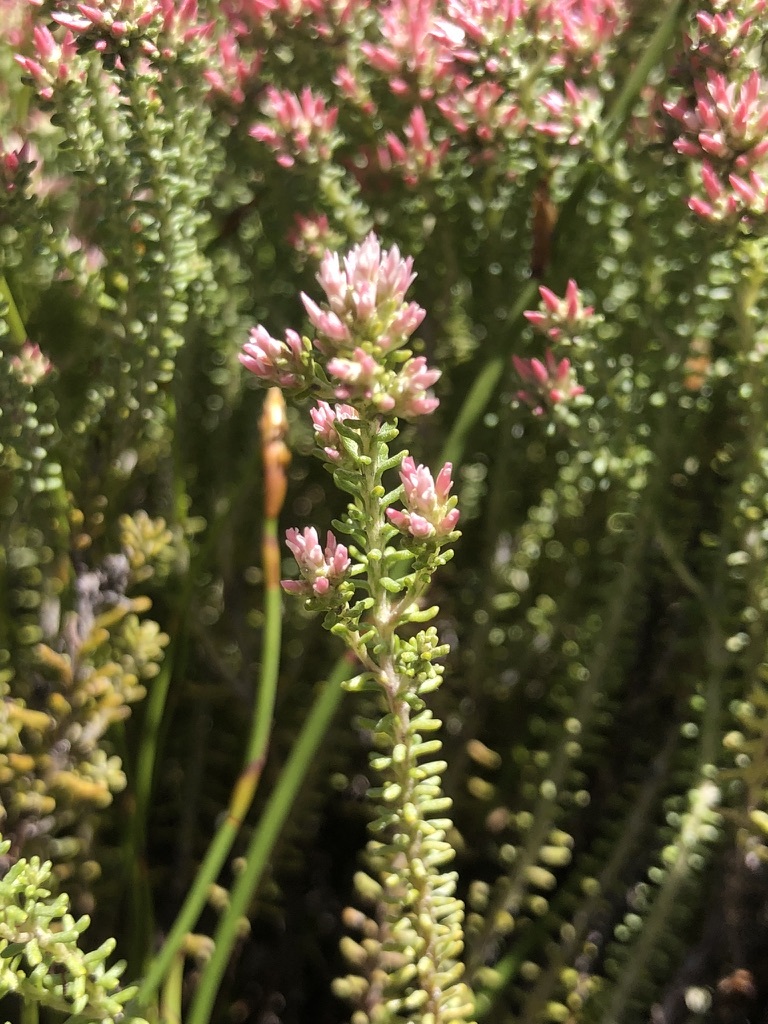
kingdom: Plantae
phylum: Tracheophyta
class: Magnoliopsida
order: Asterales
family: Asteraceae
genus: Helichrysum
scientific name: Helichrysum niveum
